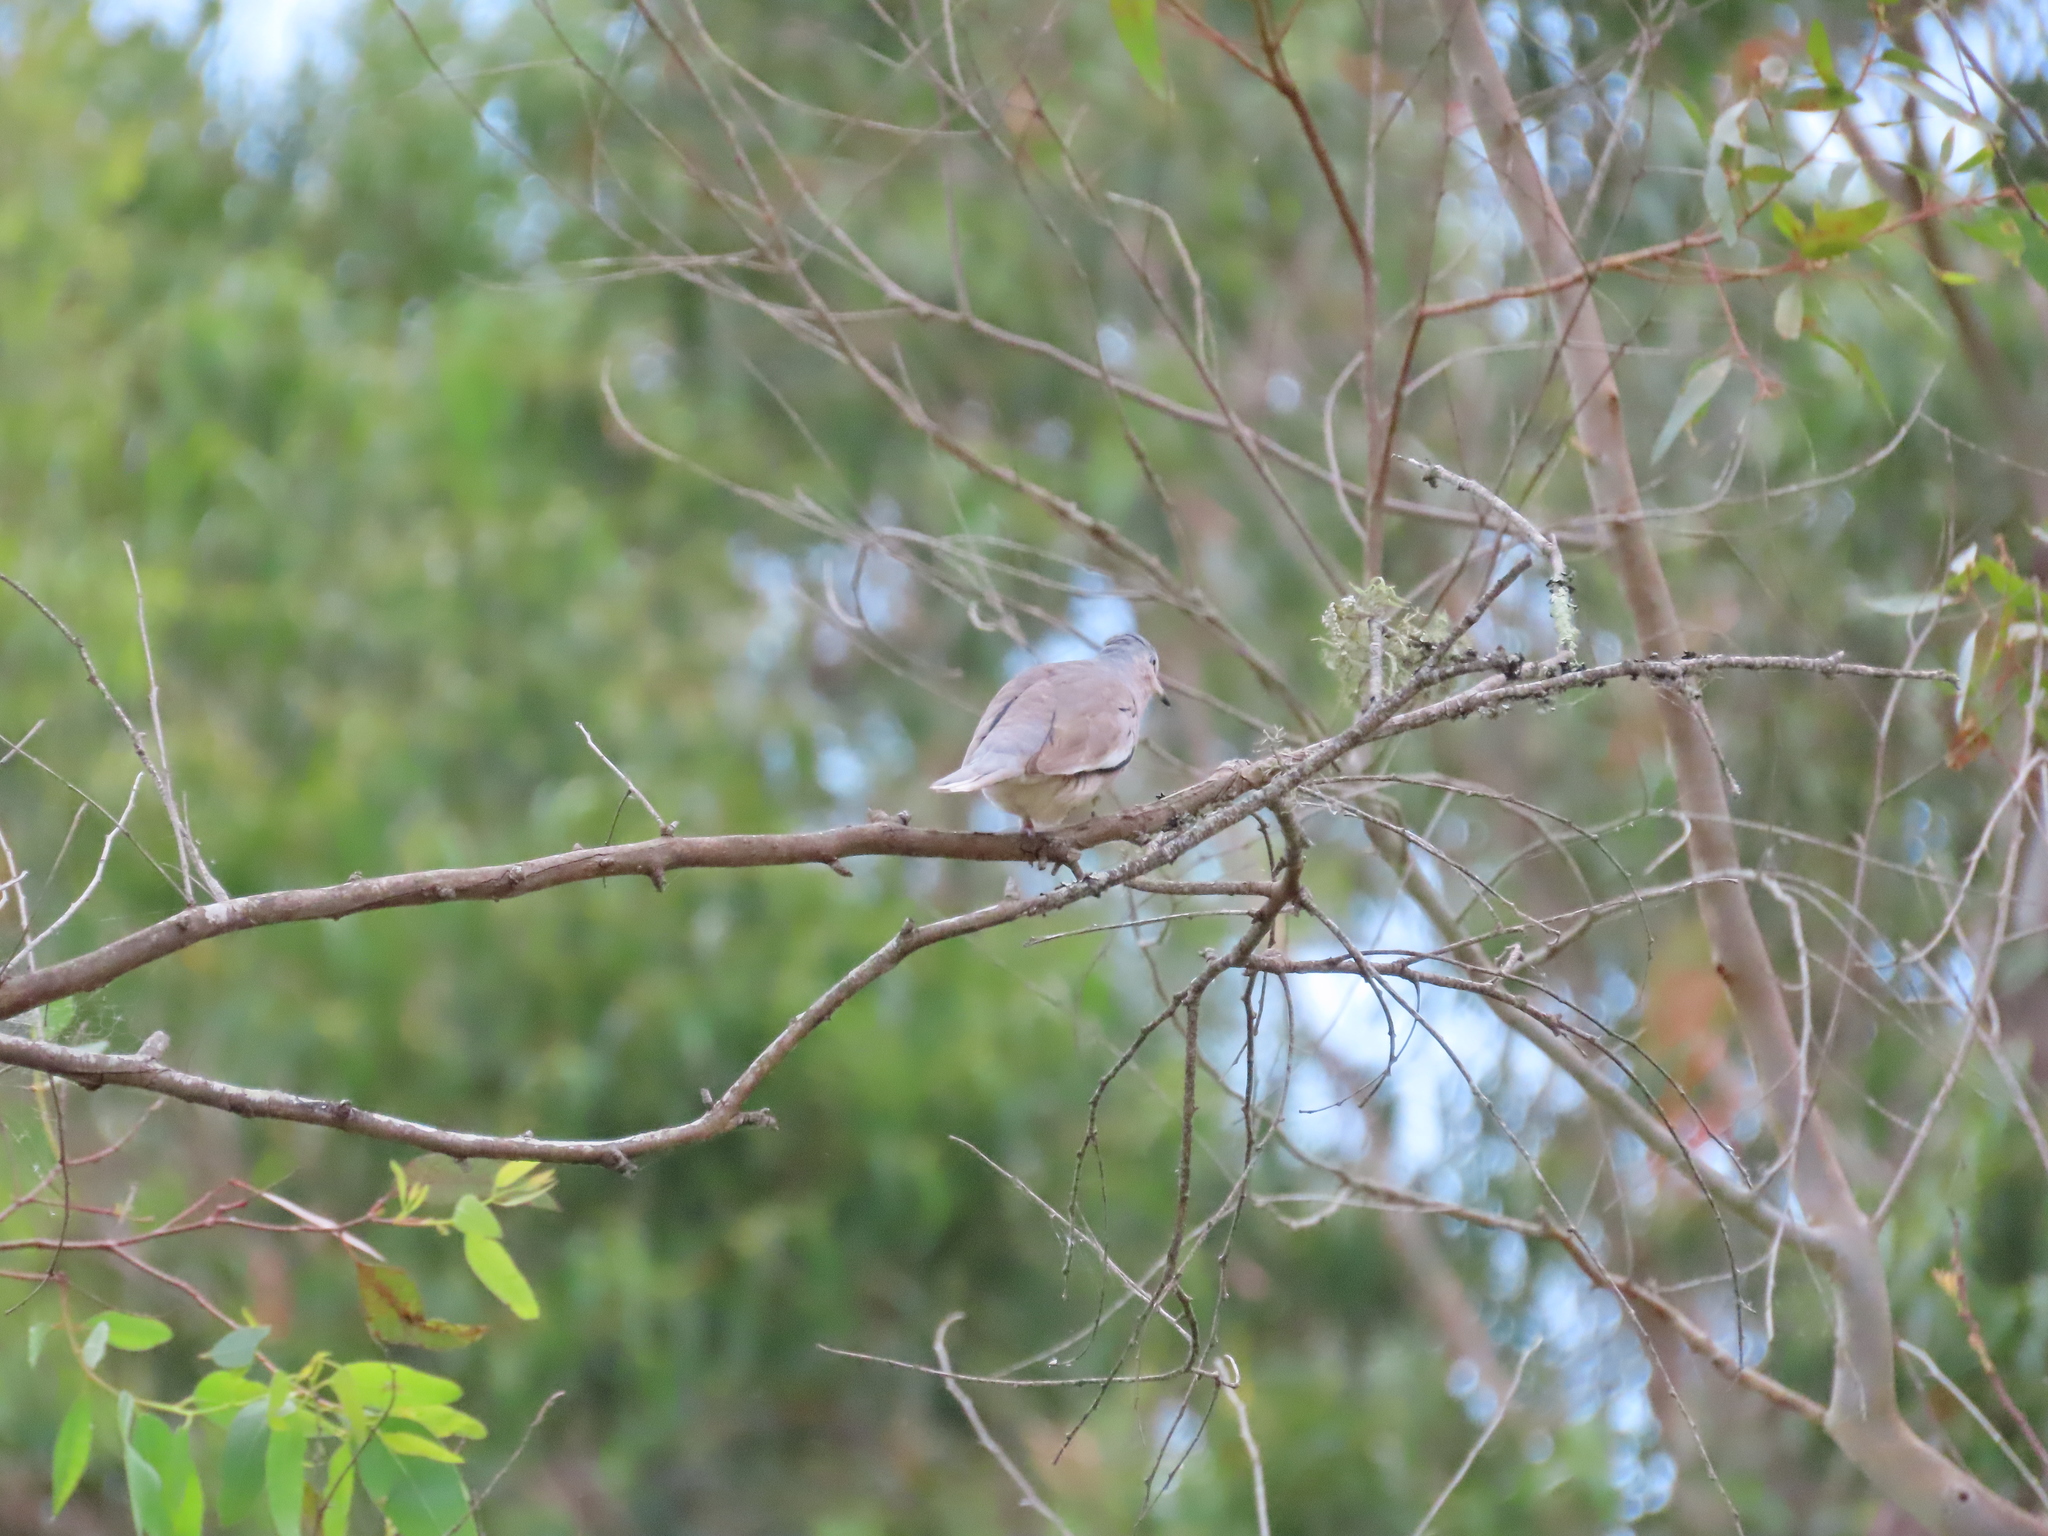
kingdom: Animalia
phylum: Chordata
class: Aves
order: Columbiformes
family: Columbidae
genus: Columbina
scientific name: Columbina picui
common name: Picui ground dove
